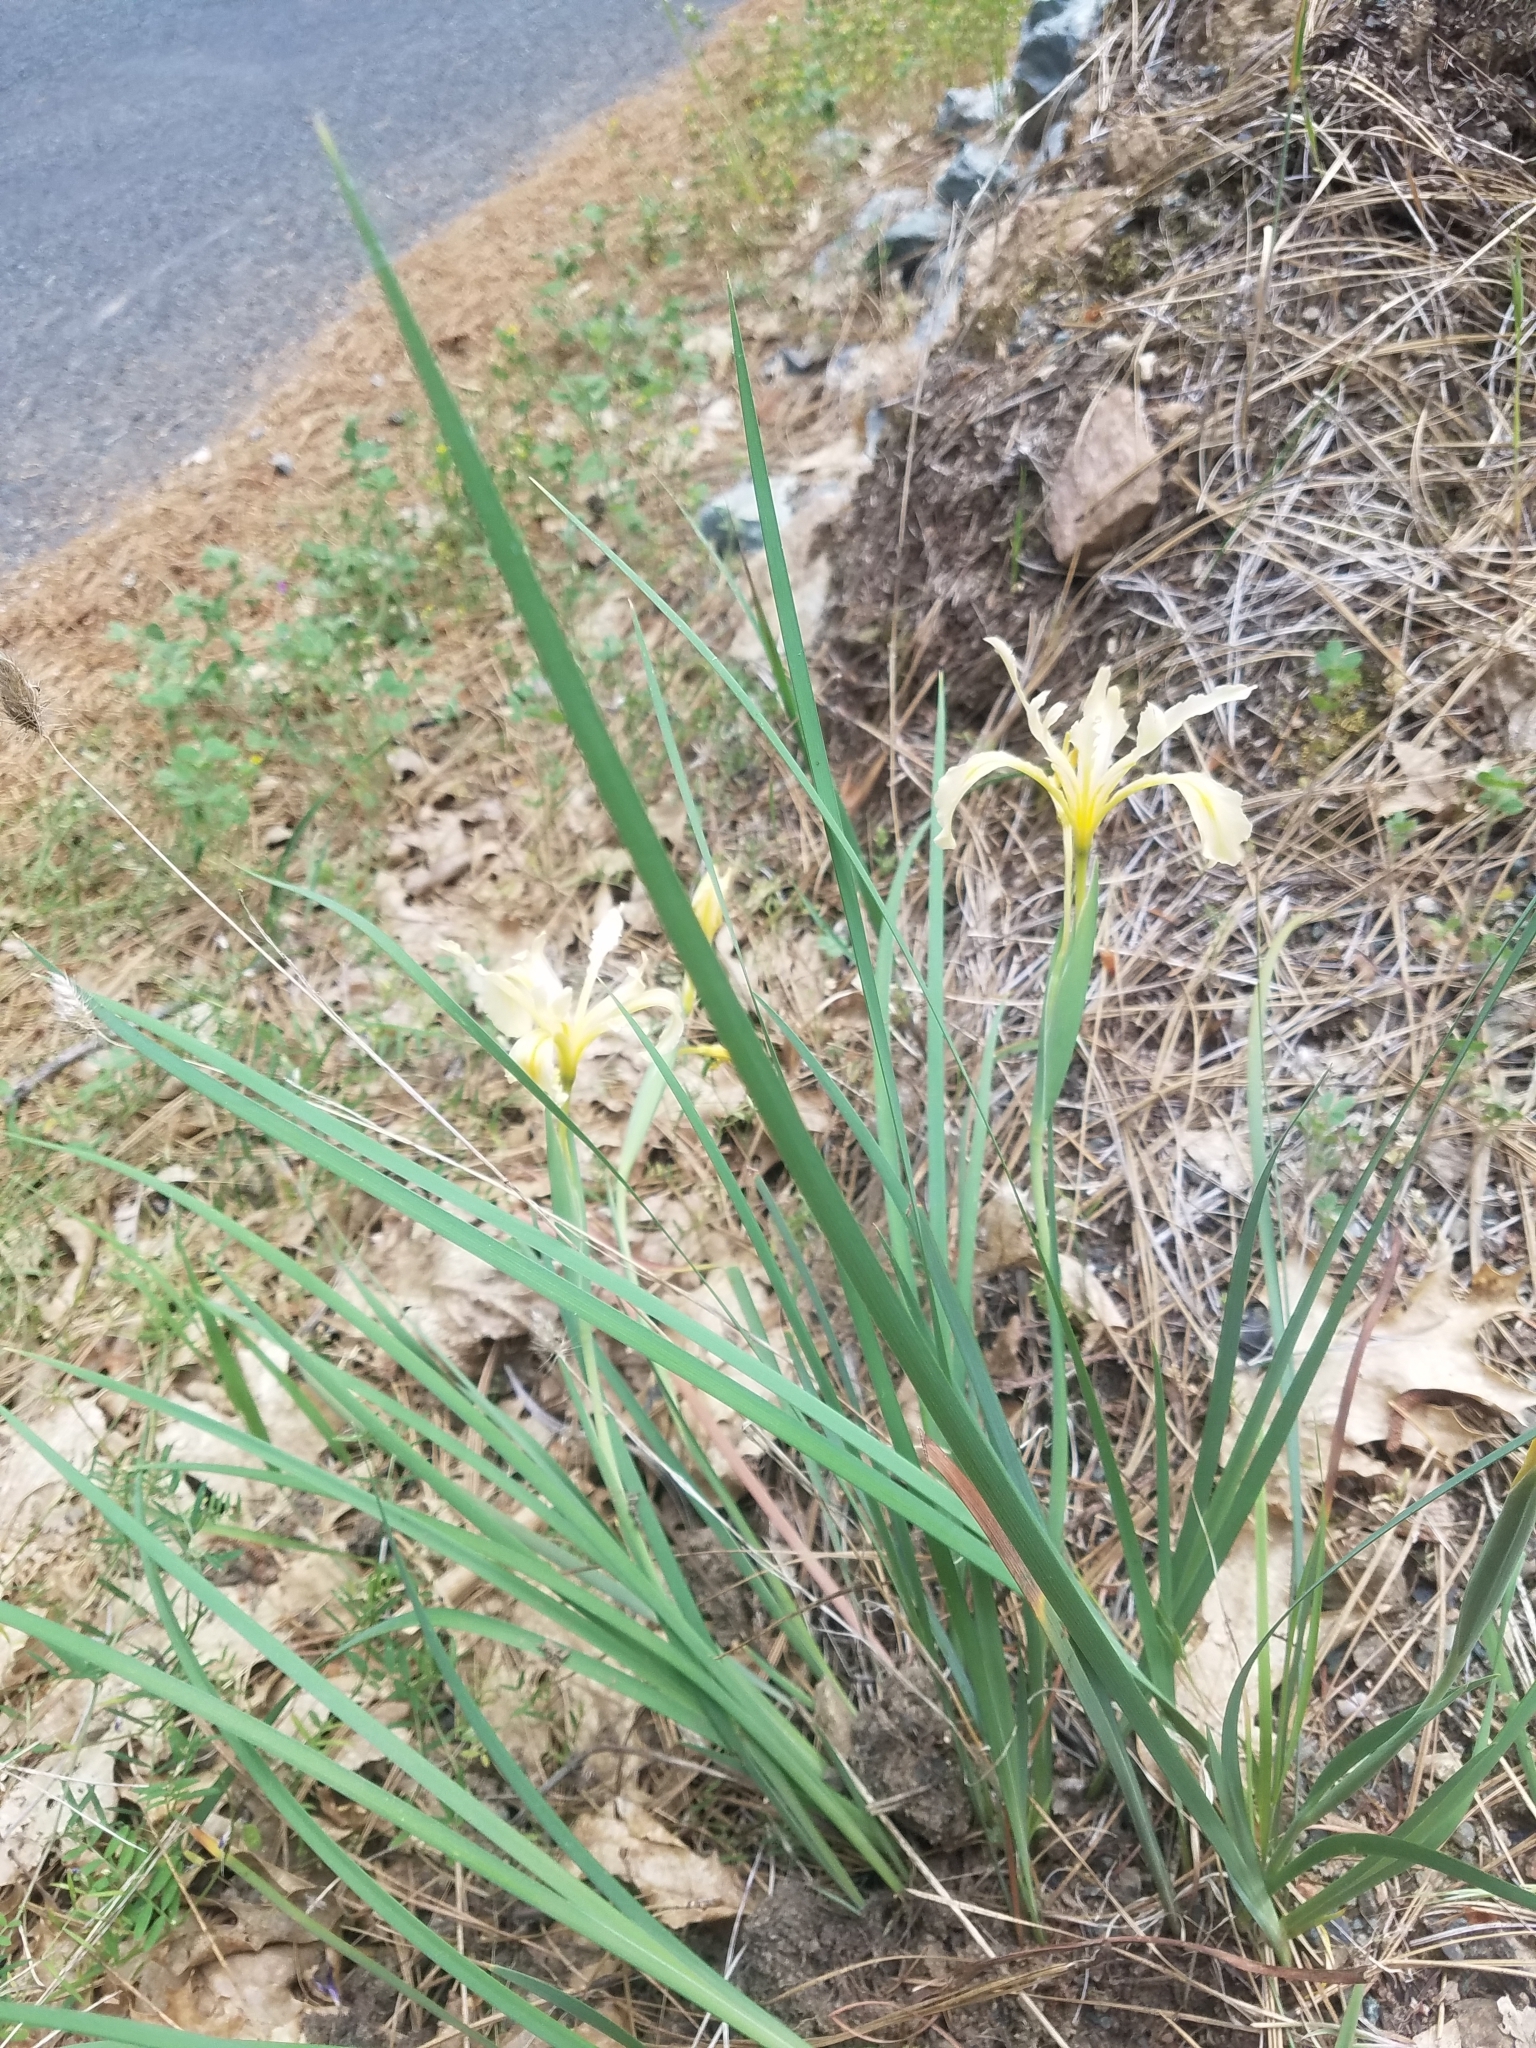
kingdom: Plantae
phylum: Tracheophyta
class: Liliopsida
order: Asparagales
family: Iridaceae
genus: Iris
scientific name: Iris macrosiphon
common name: Ground iris
